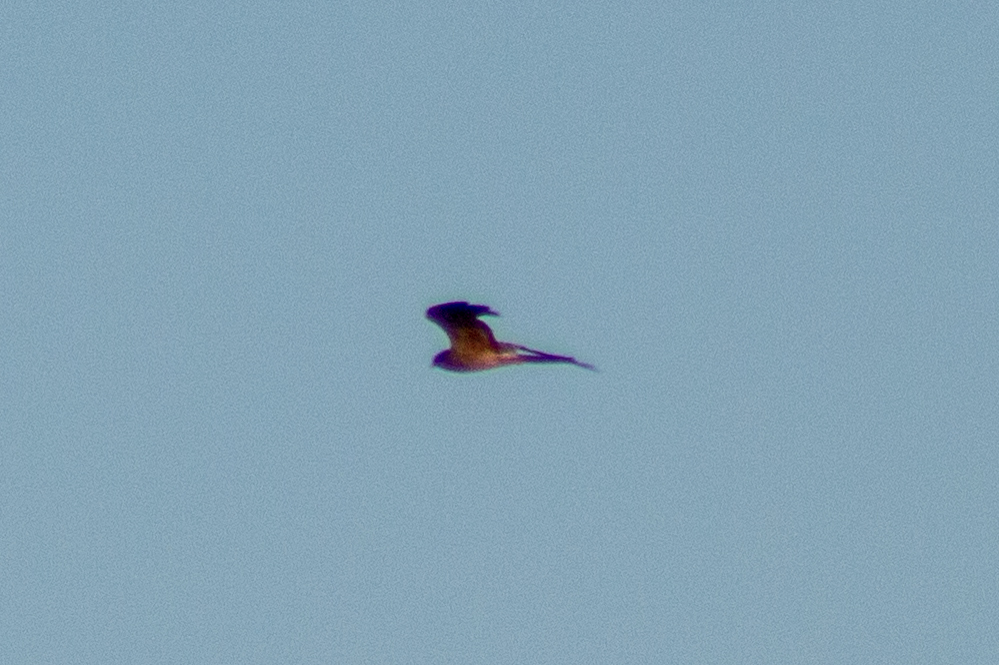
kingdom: Animalia
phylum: Chordata
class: Aves
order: Accipitriformes
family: Accipitridae
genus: Circus
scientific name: Circus pygargus
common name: Montagu's harrier
